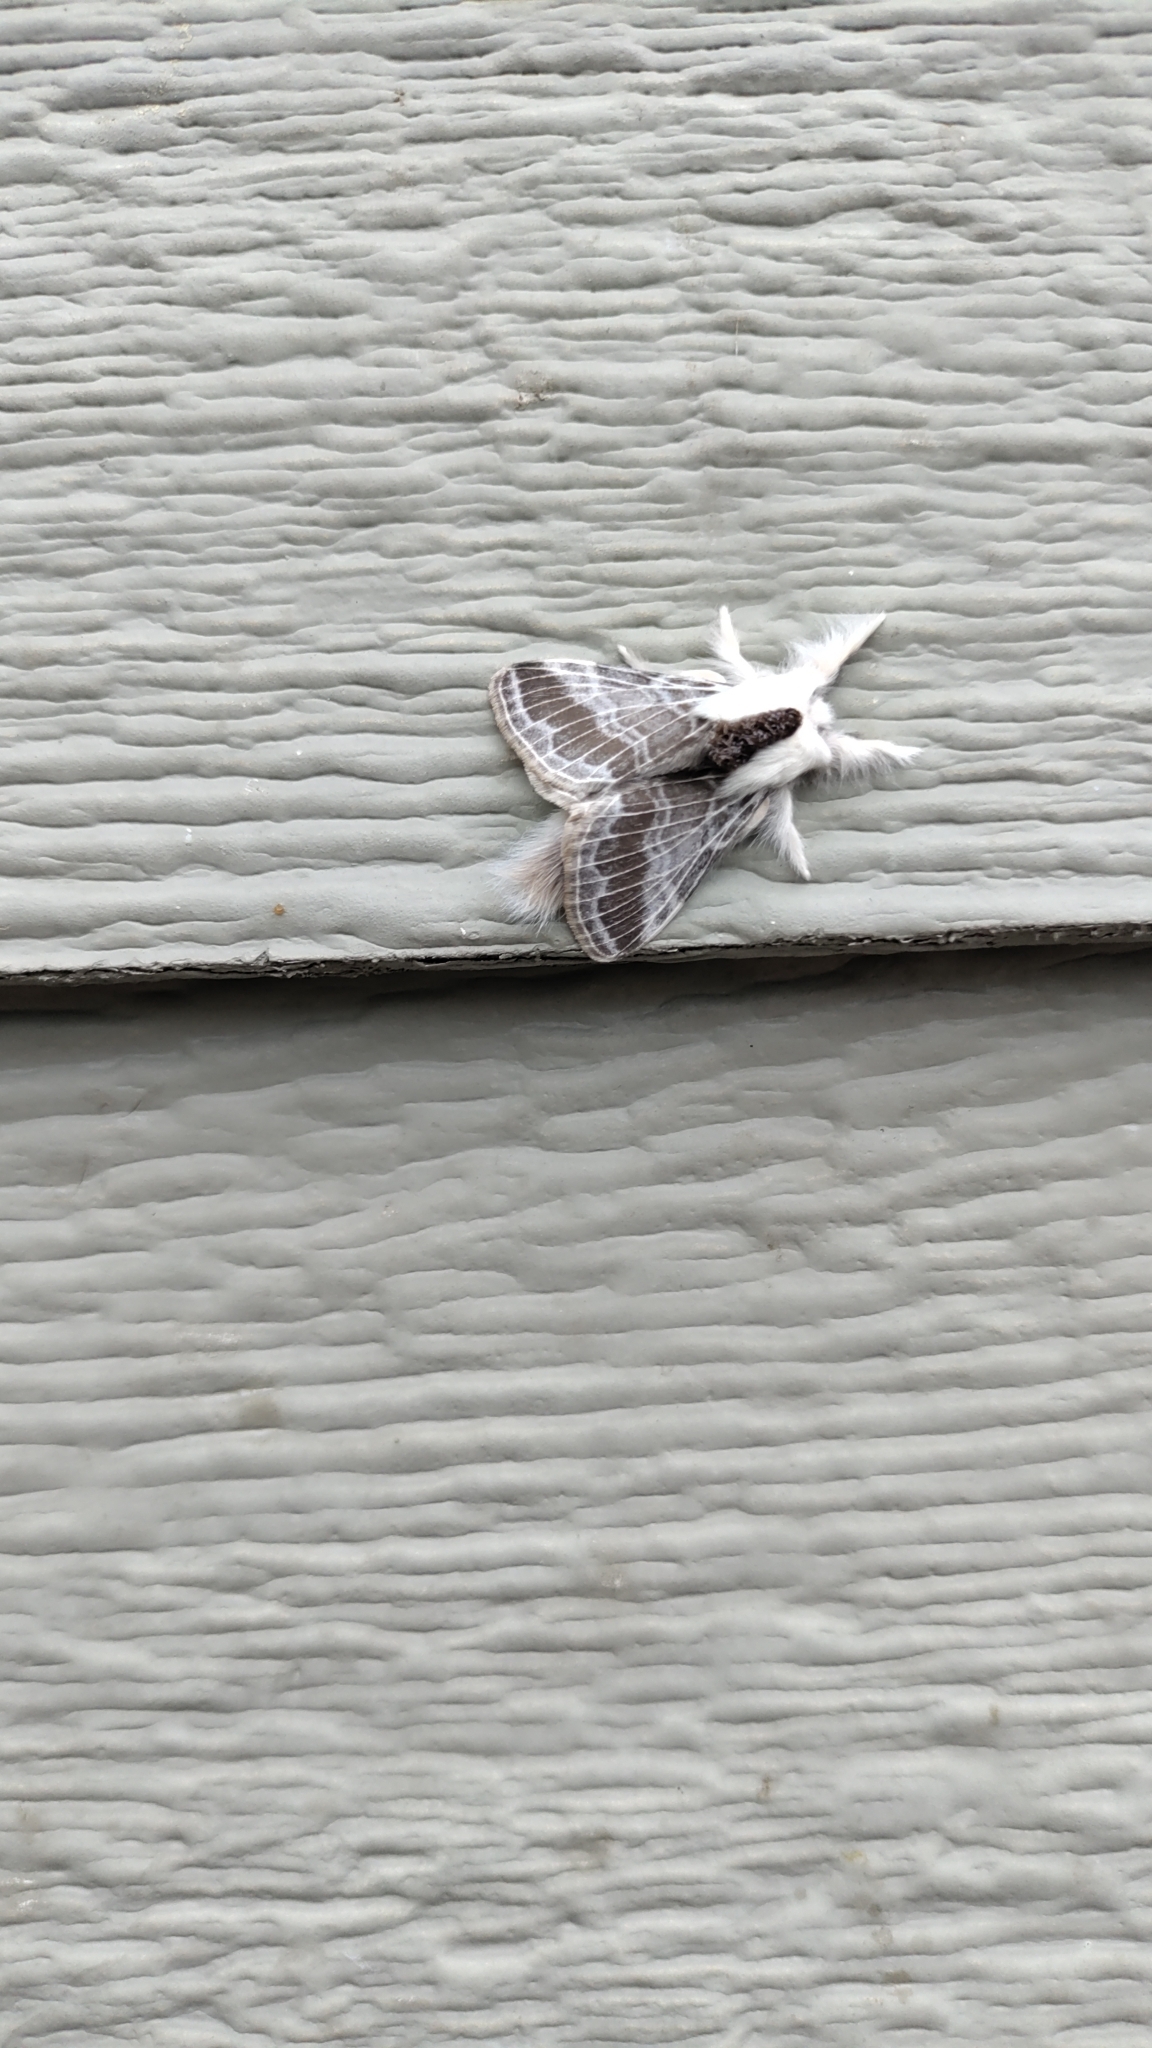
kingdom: Animalia
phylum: Arthropoda
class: Insecta
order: Lepidoptera
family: Lasiocampidae
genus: Tolype
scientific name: Tolype velleda
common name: Large tolype moth
